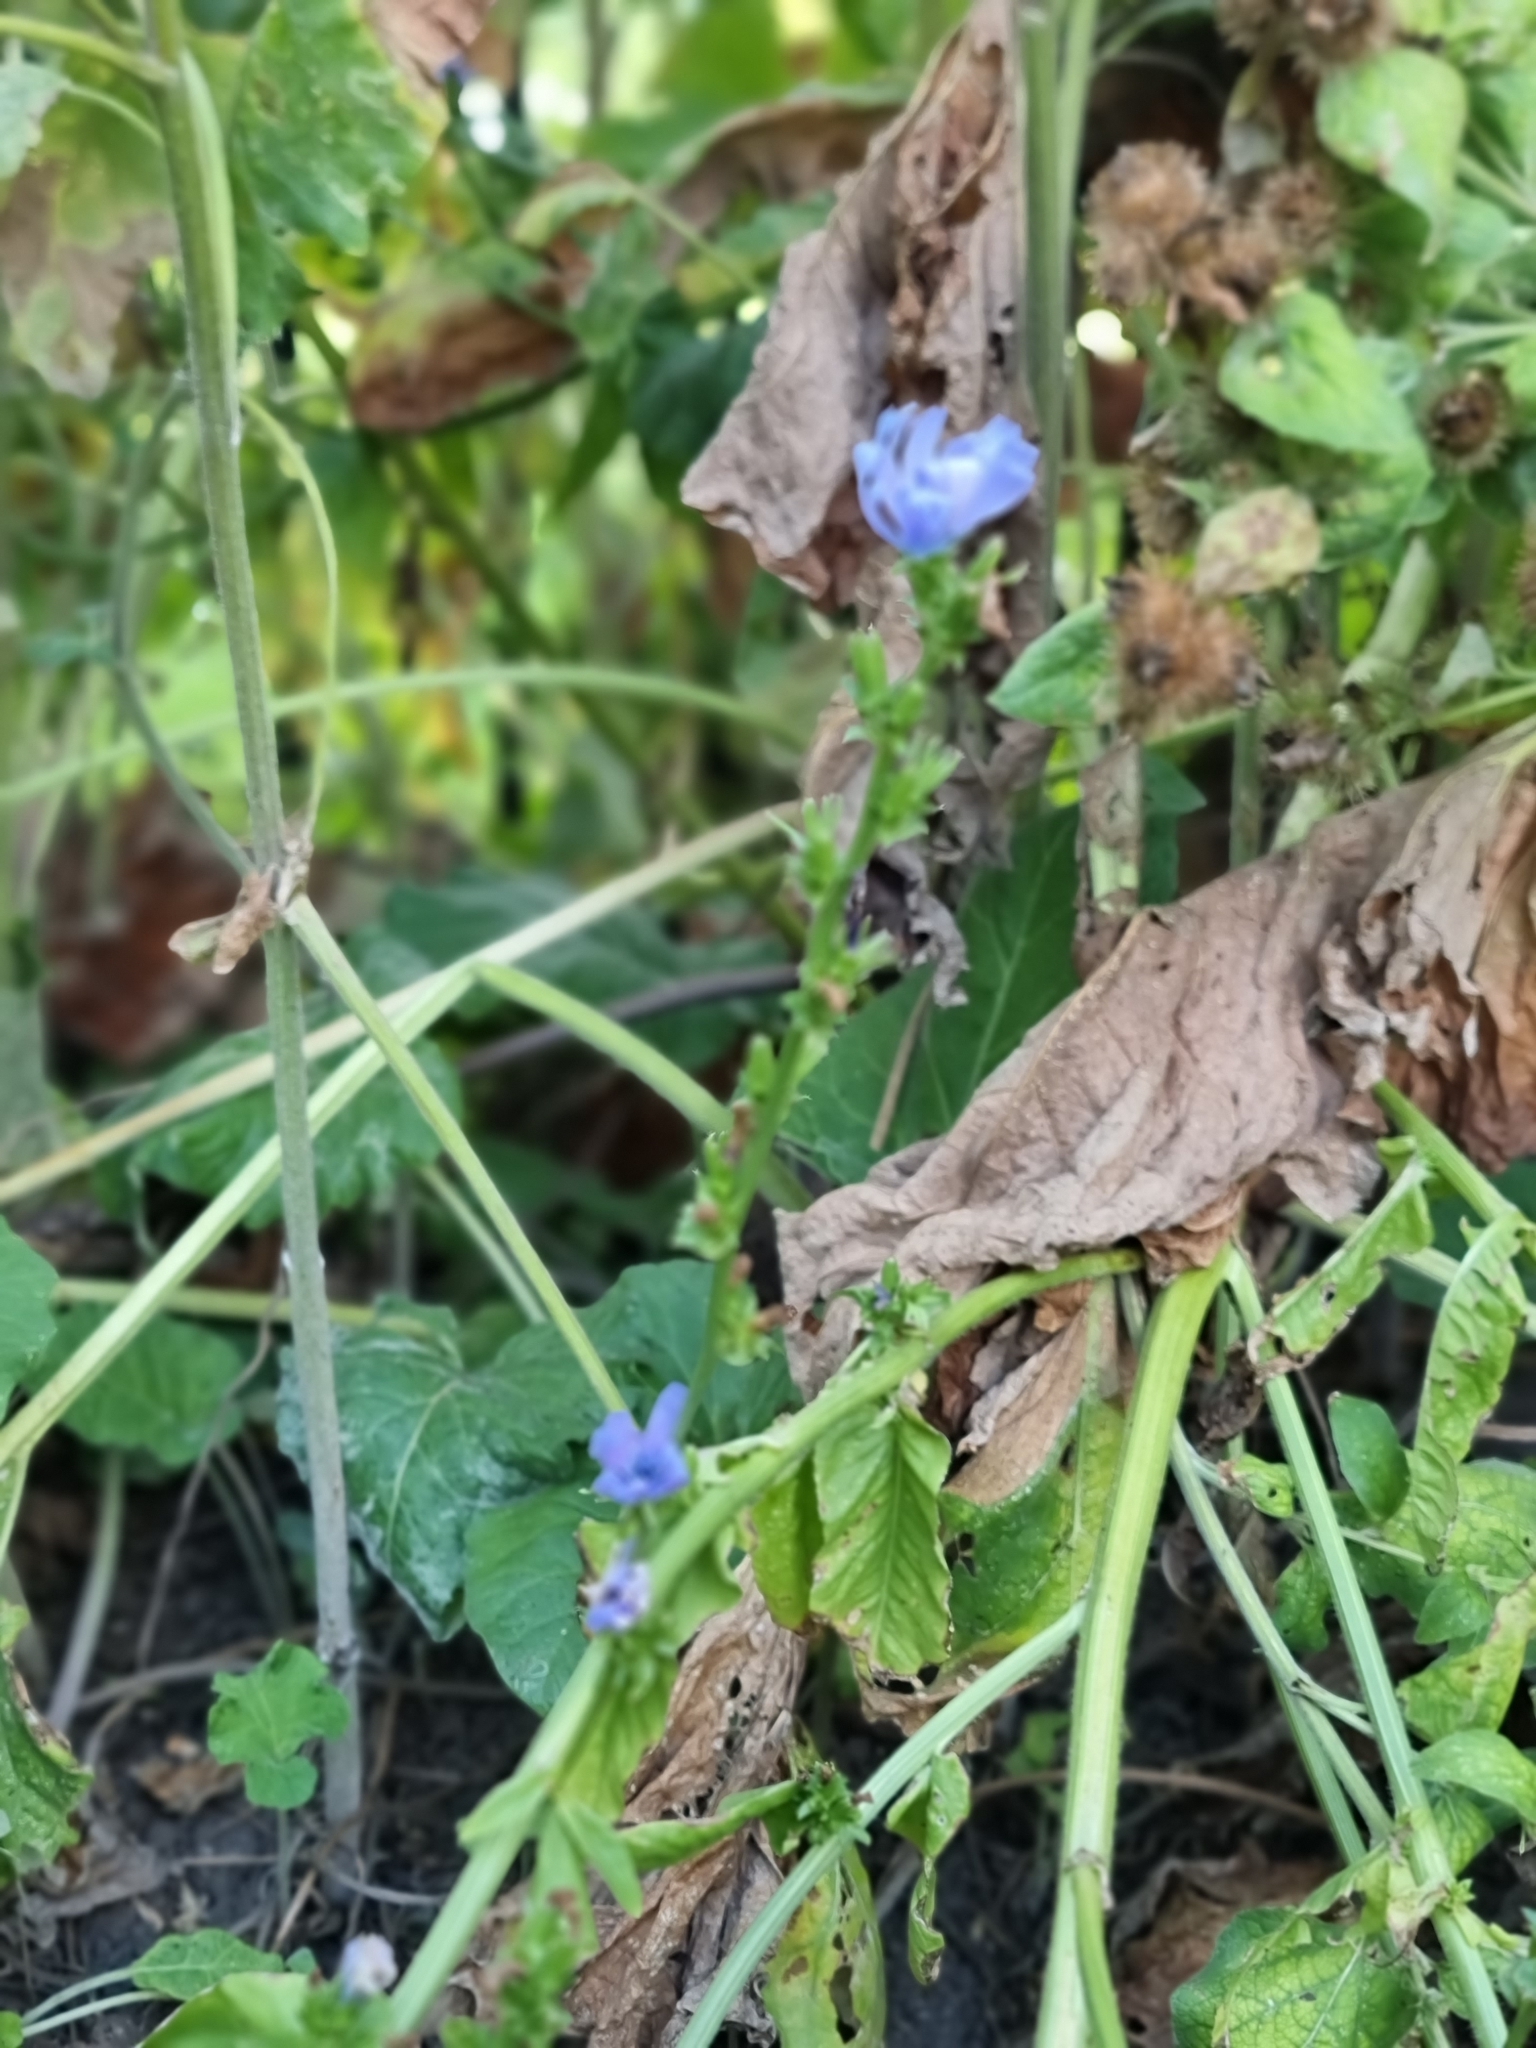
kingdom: Plantae
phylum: Tracheophyta
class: Magnoliopsida
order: Asterales
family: Asteraceae
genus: Cichorium
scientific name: Cichorium intybus
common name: Chicory
